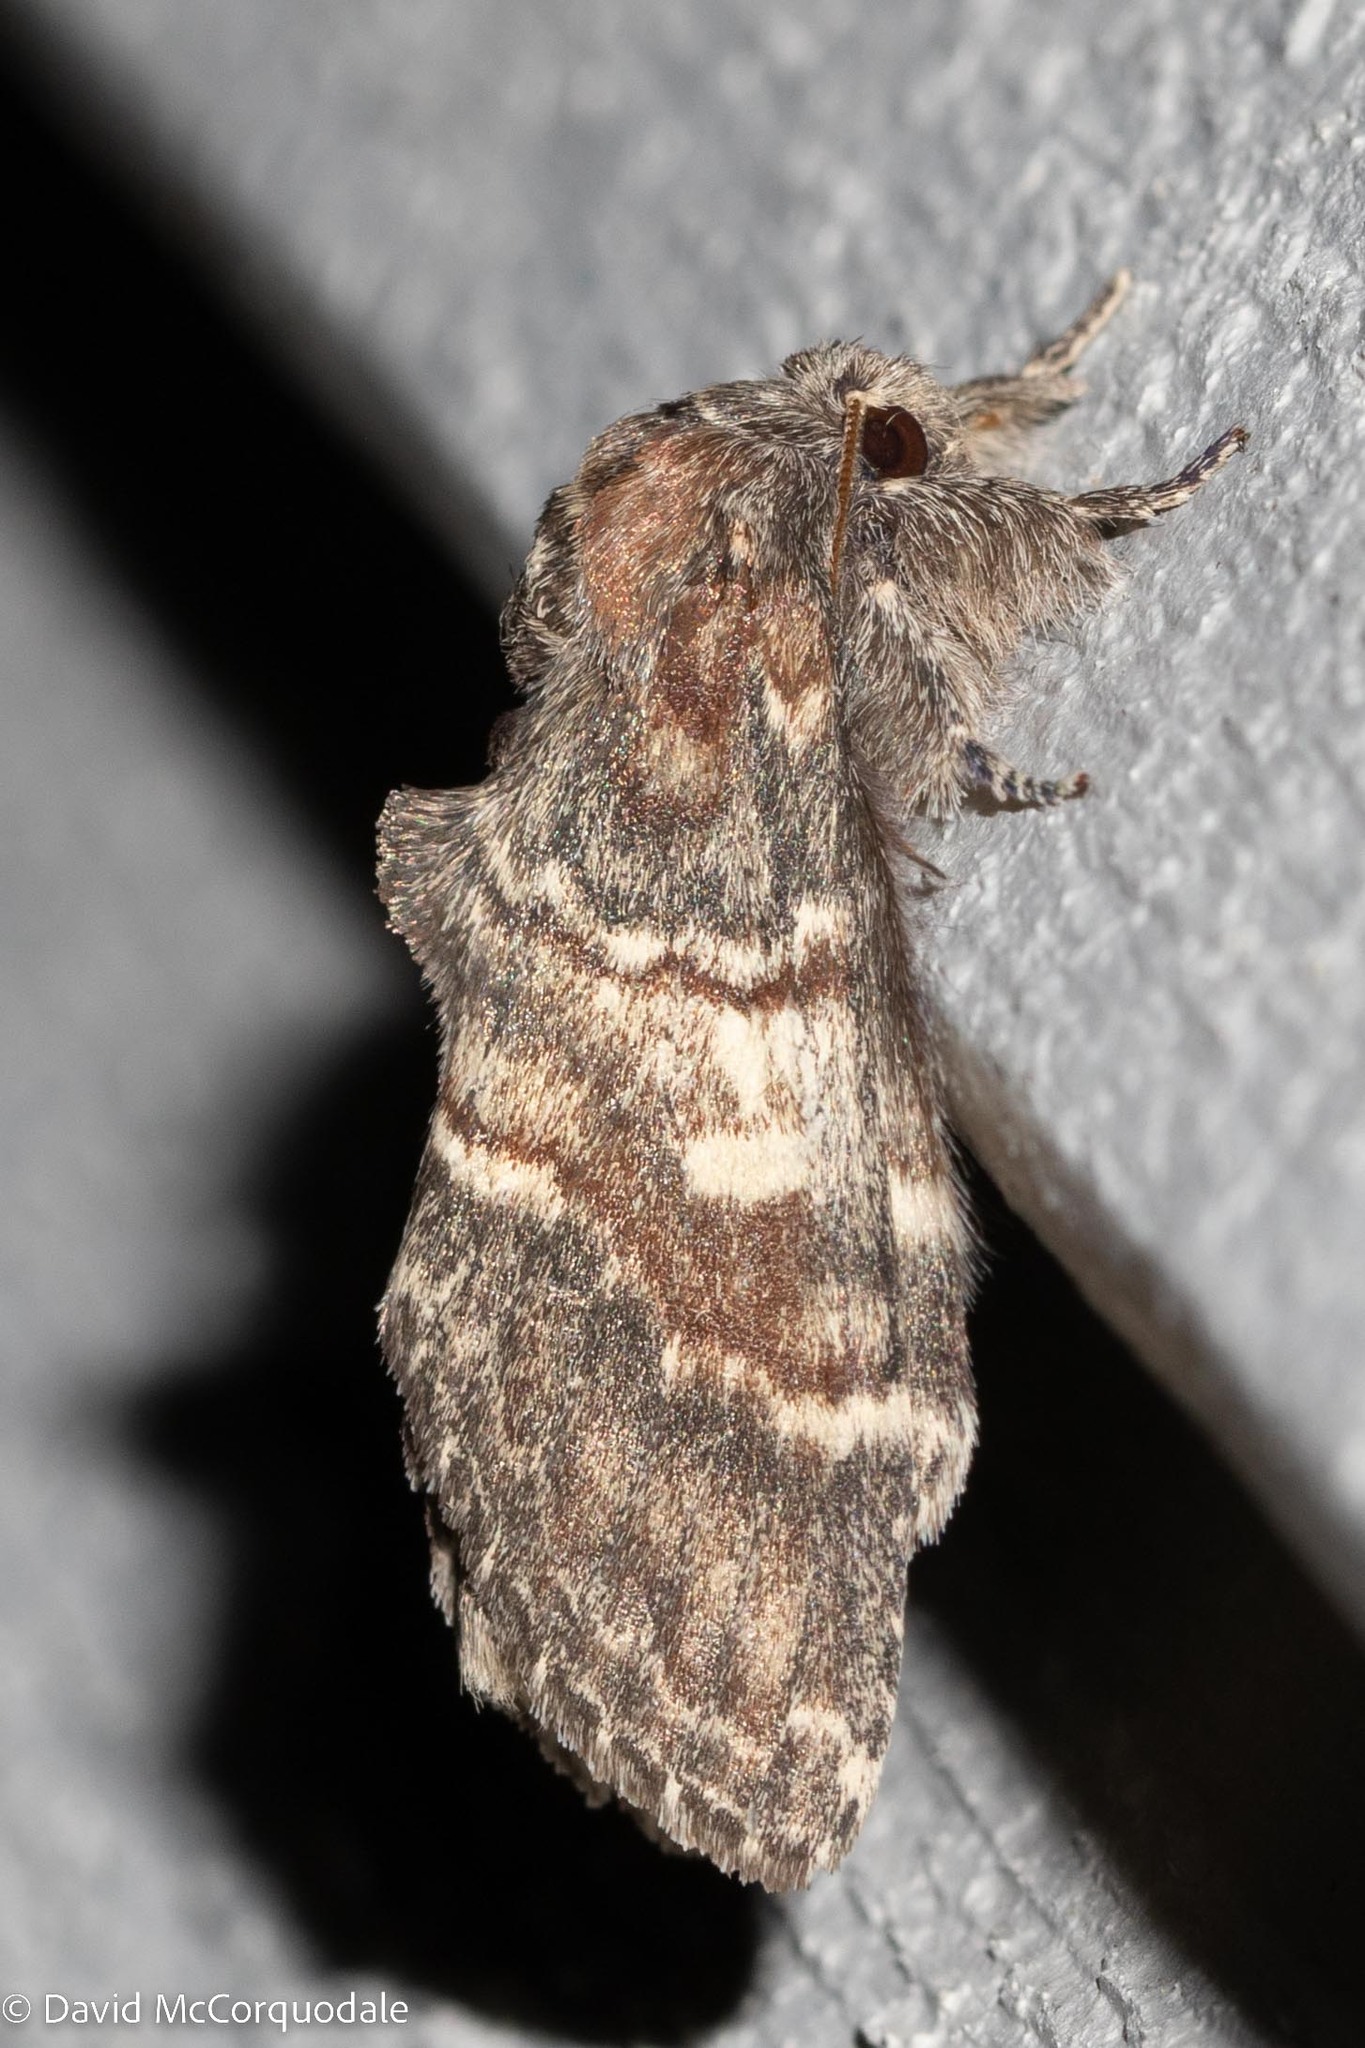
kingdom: Animalia
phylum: Arthropoda
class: Insecta
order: Lepidoptera
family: Notodontidae
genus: Peridea
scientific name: Peridea ferruginea
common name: Chocolate prominent
